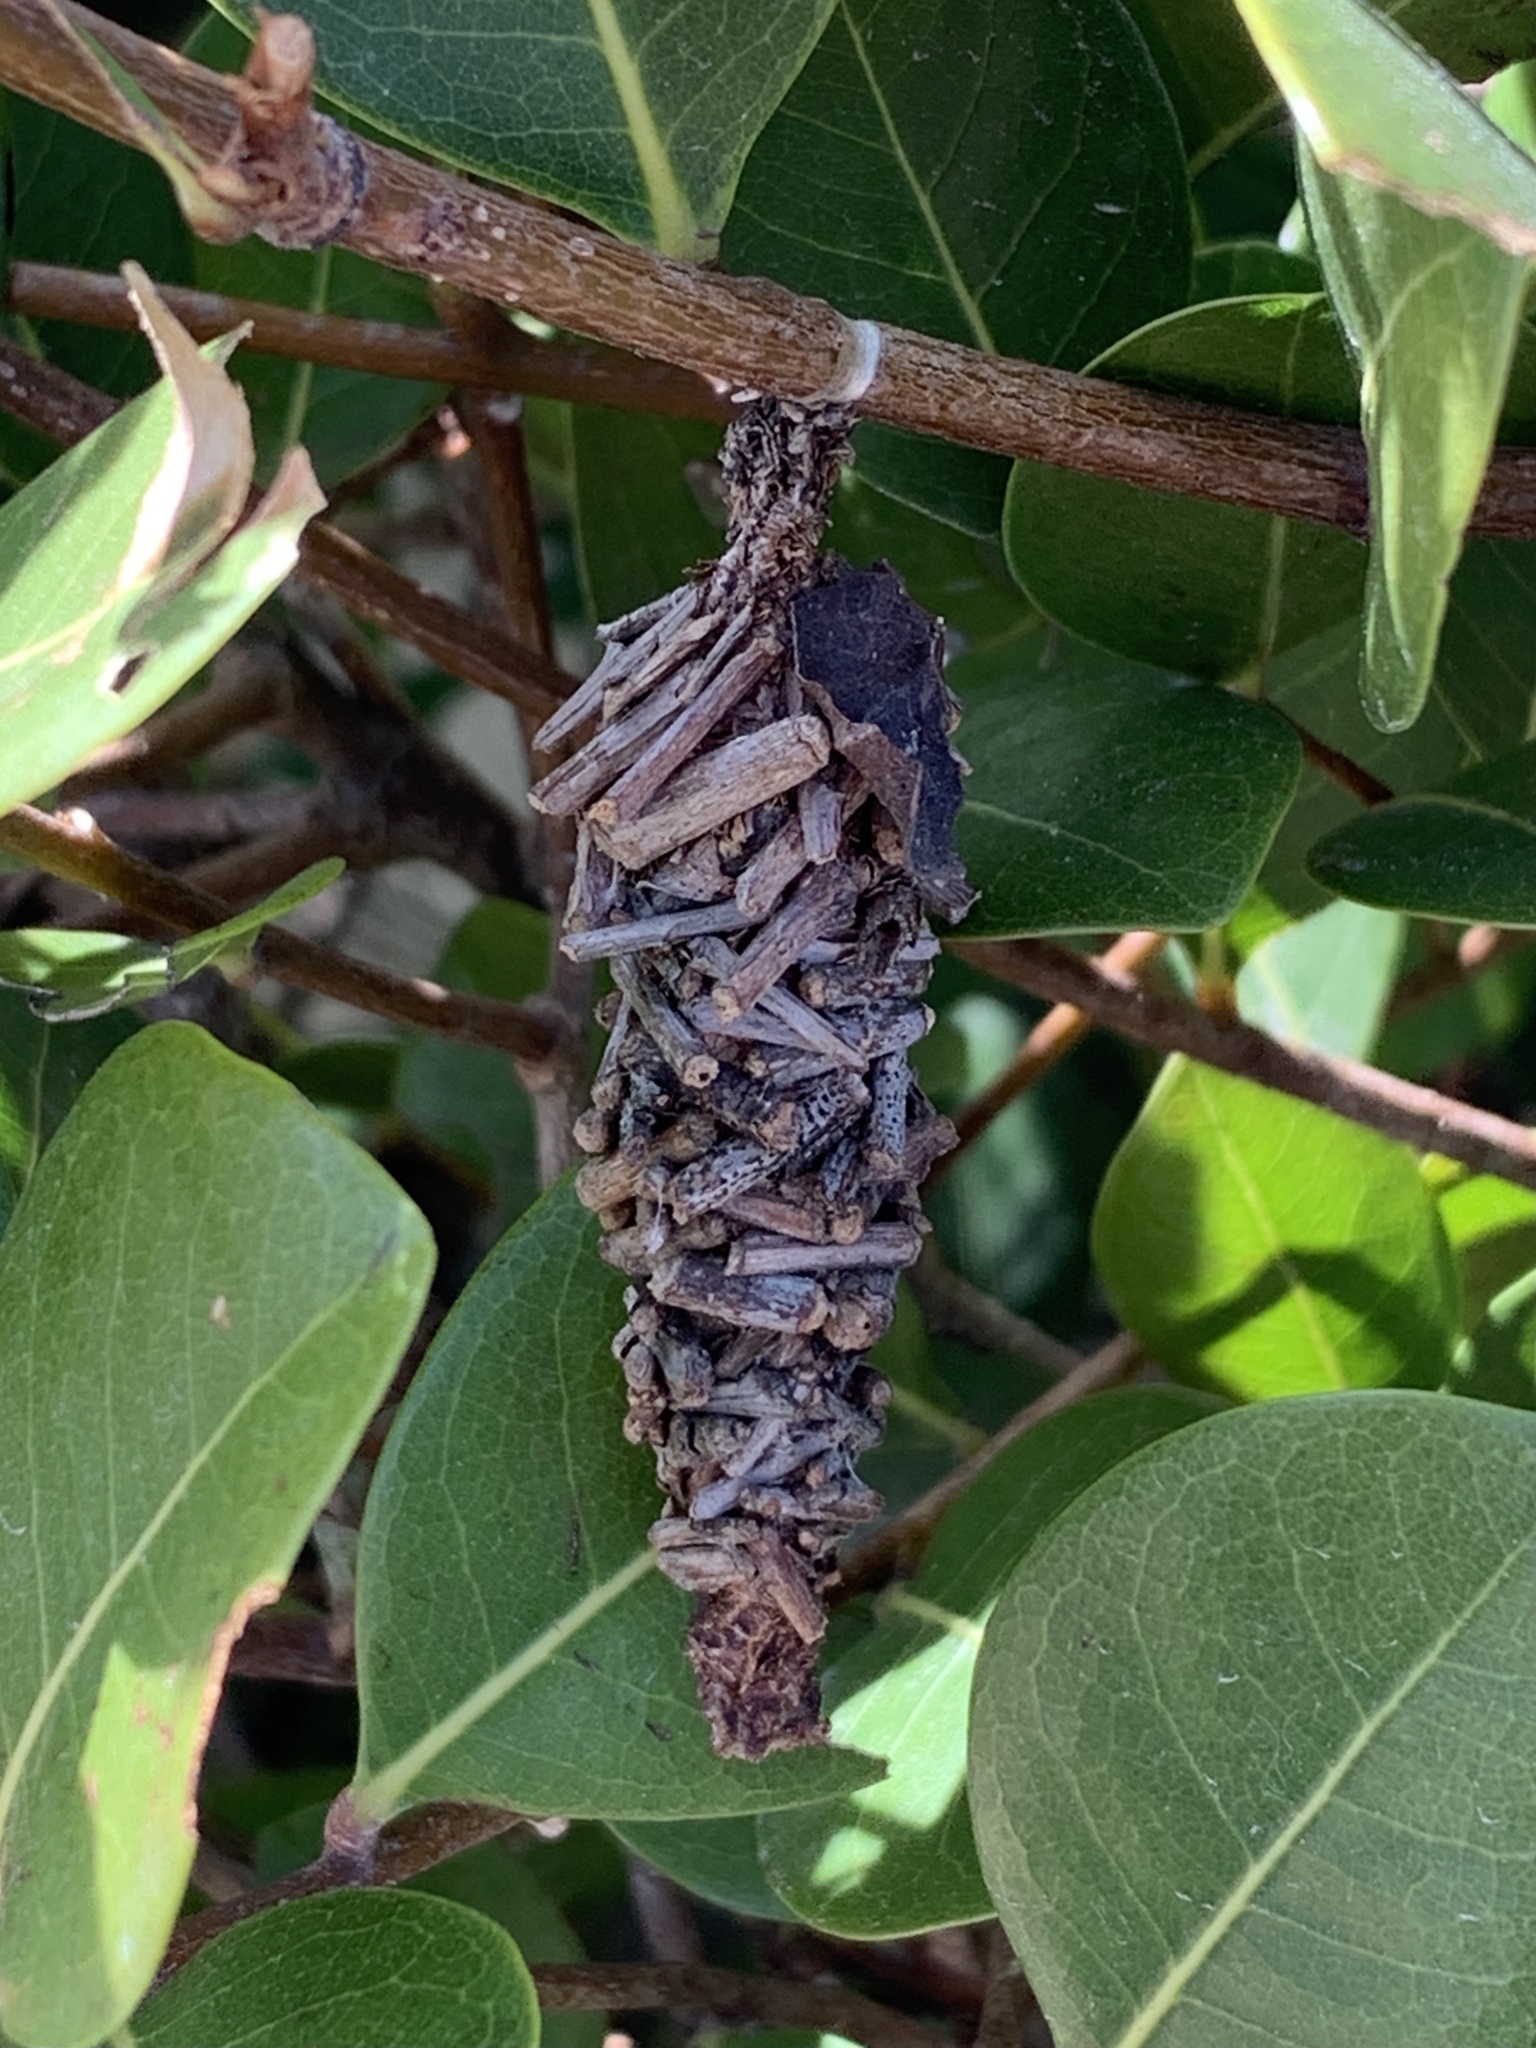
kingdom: Animalia
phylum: Arthropoda
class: Insecta
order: Lepidoptera
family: Psychidae
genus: Oiketicus
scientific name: Oiketicus
